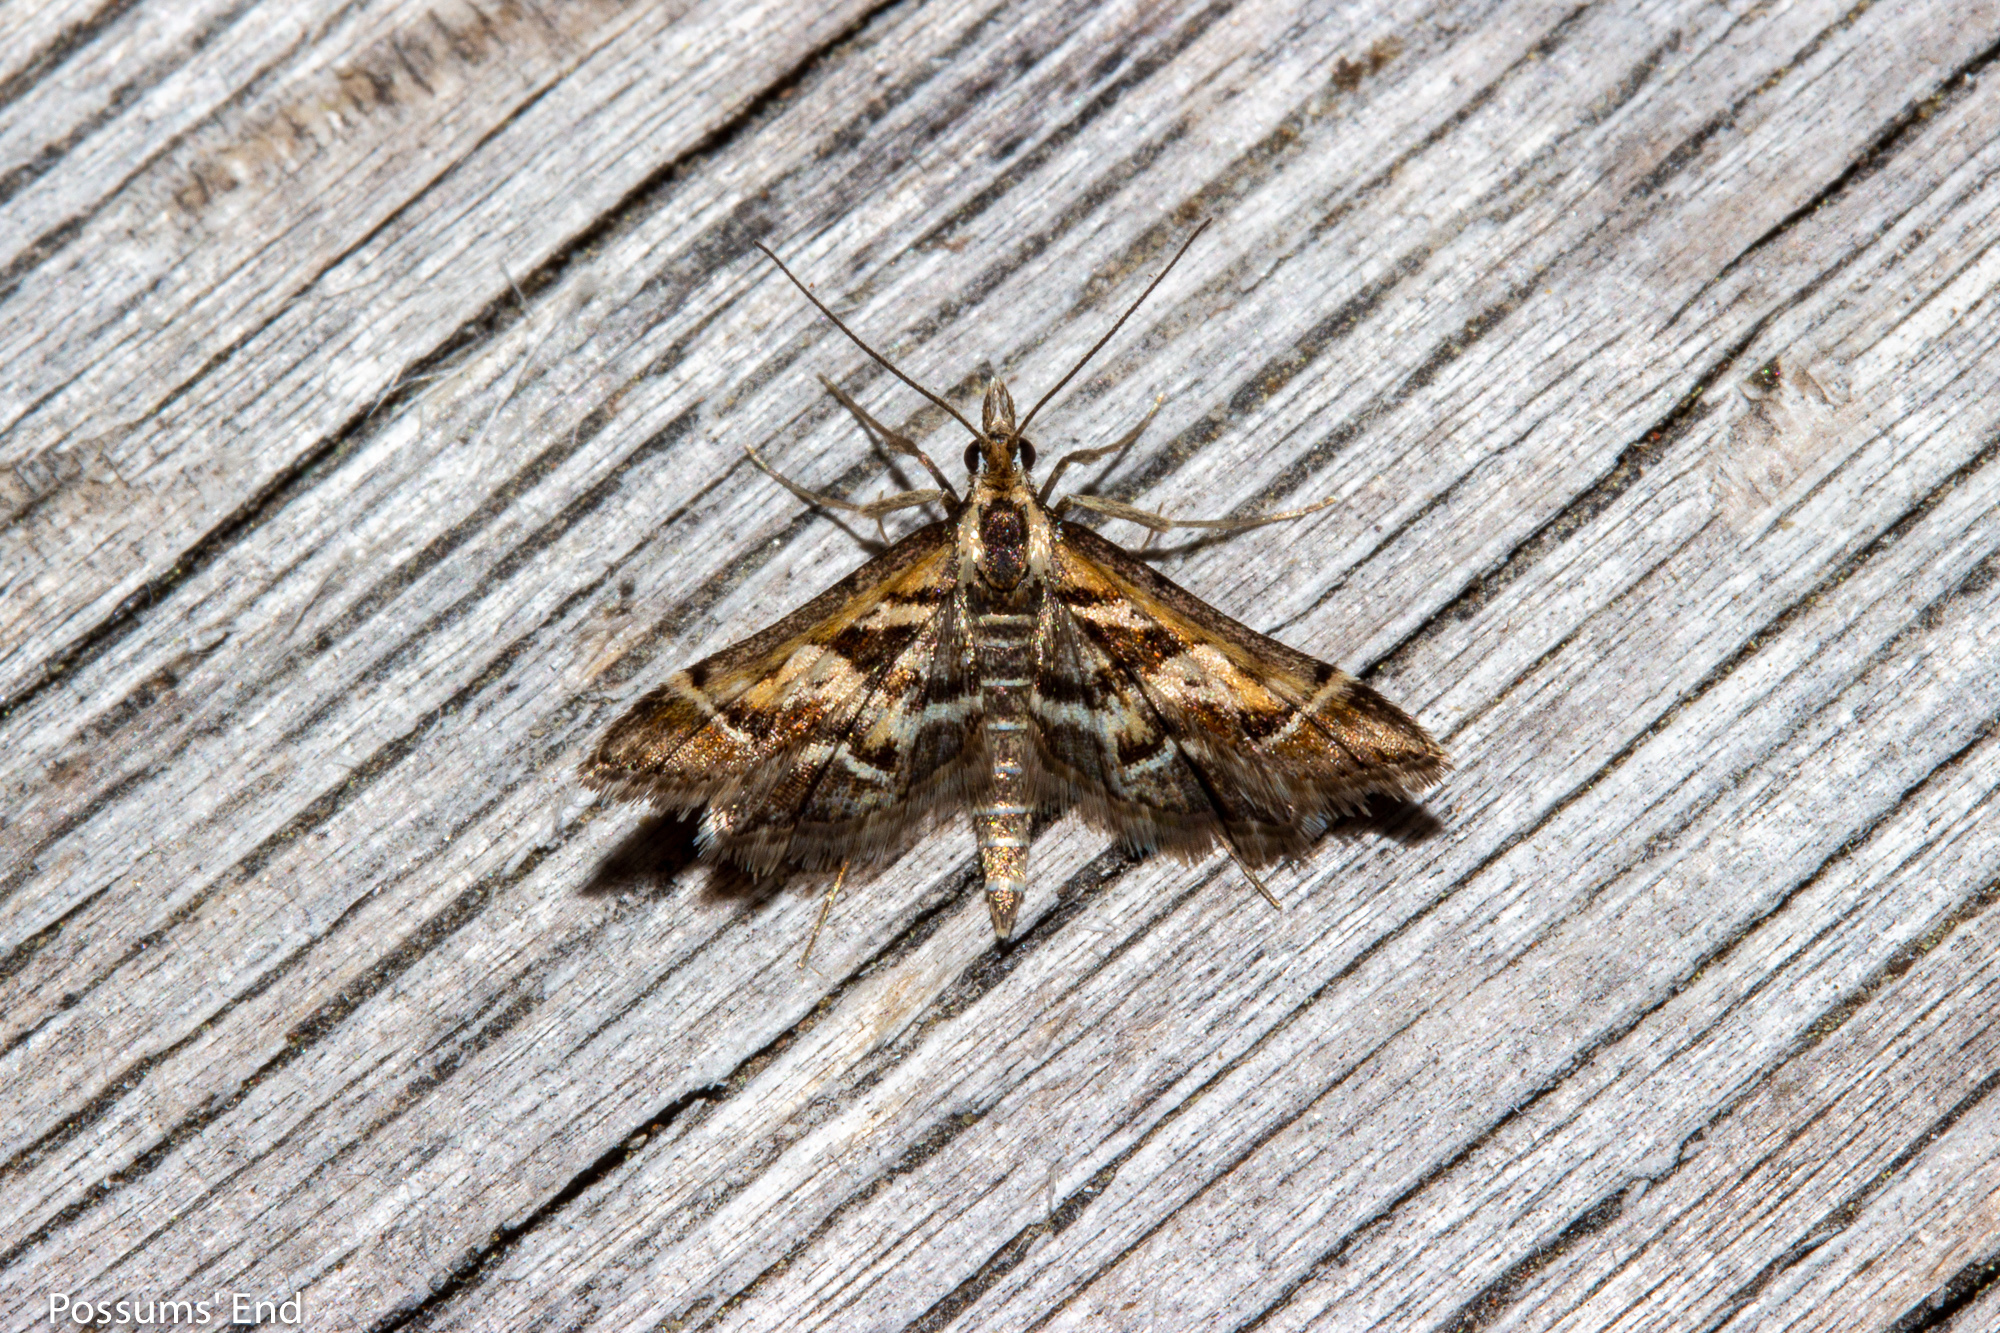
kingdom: Animalia
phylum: Arthropoda
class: Insecta
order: Lepidoptera
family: Crambidae
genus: Diasemia
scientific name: Diasemia grammalis
